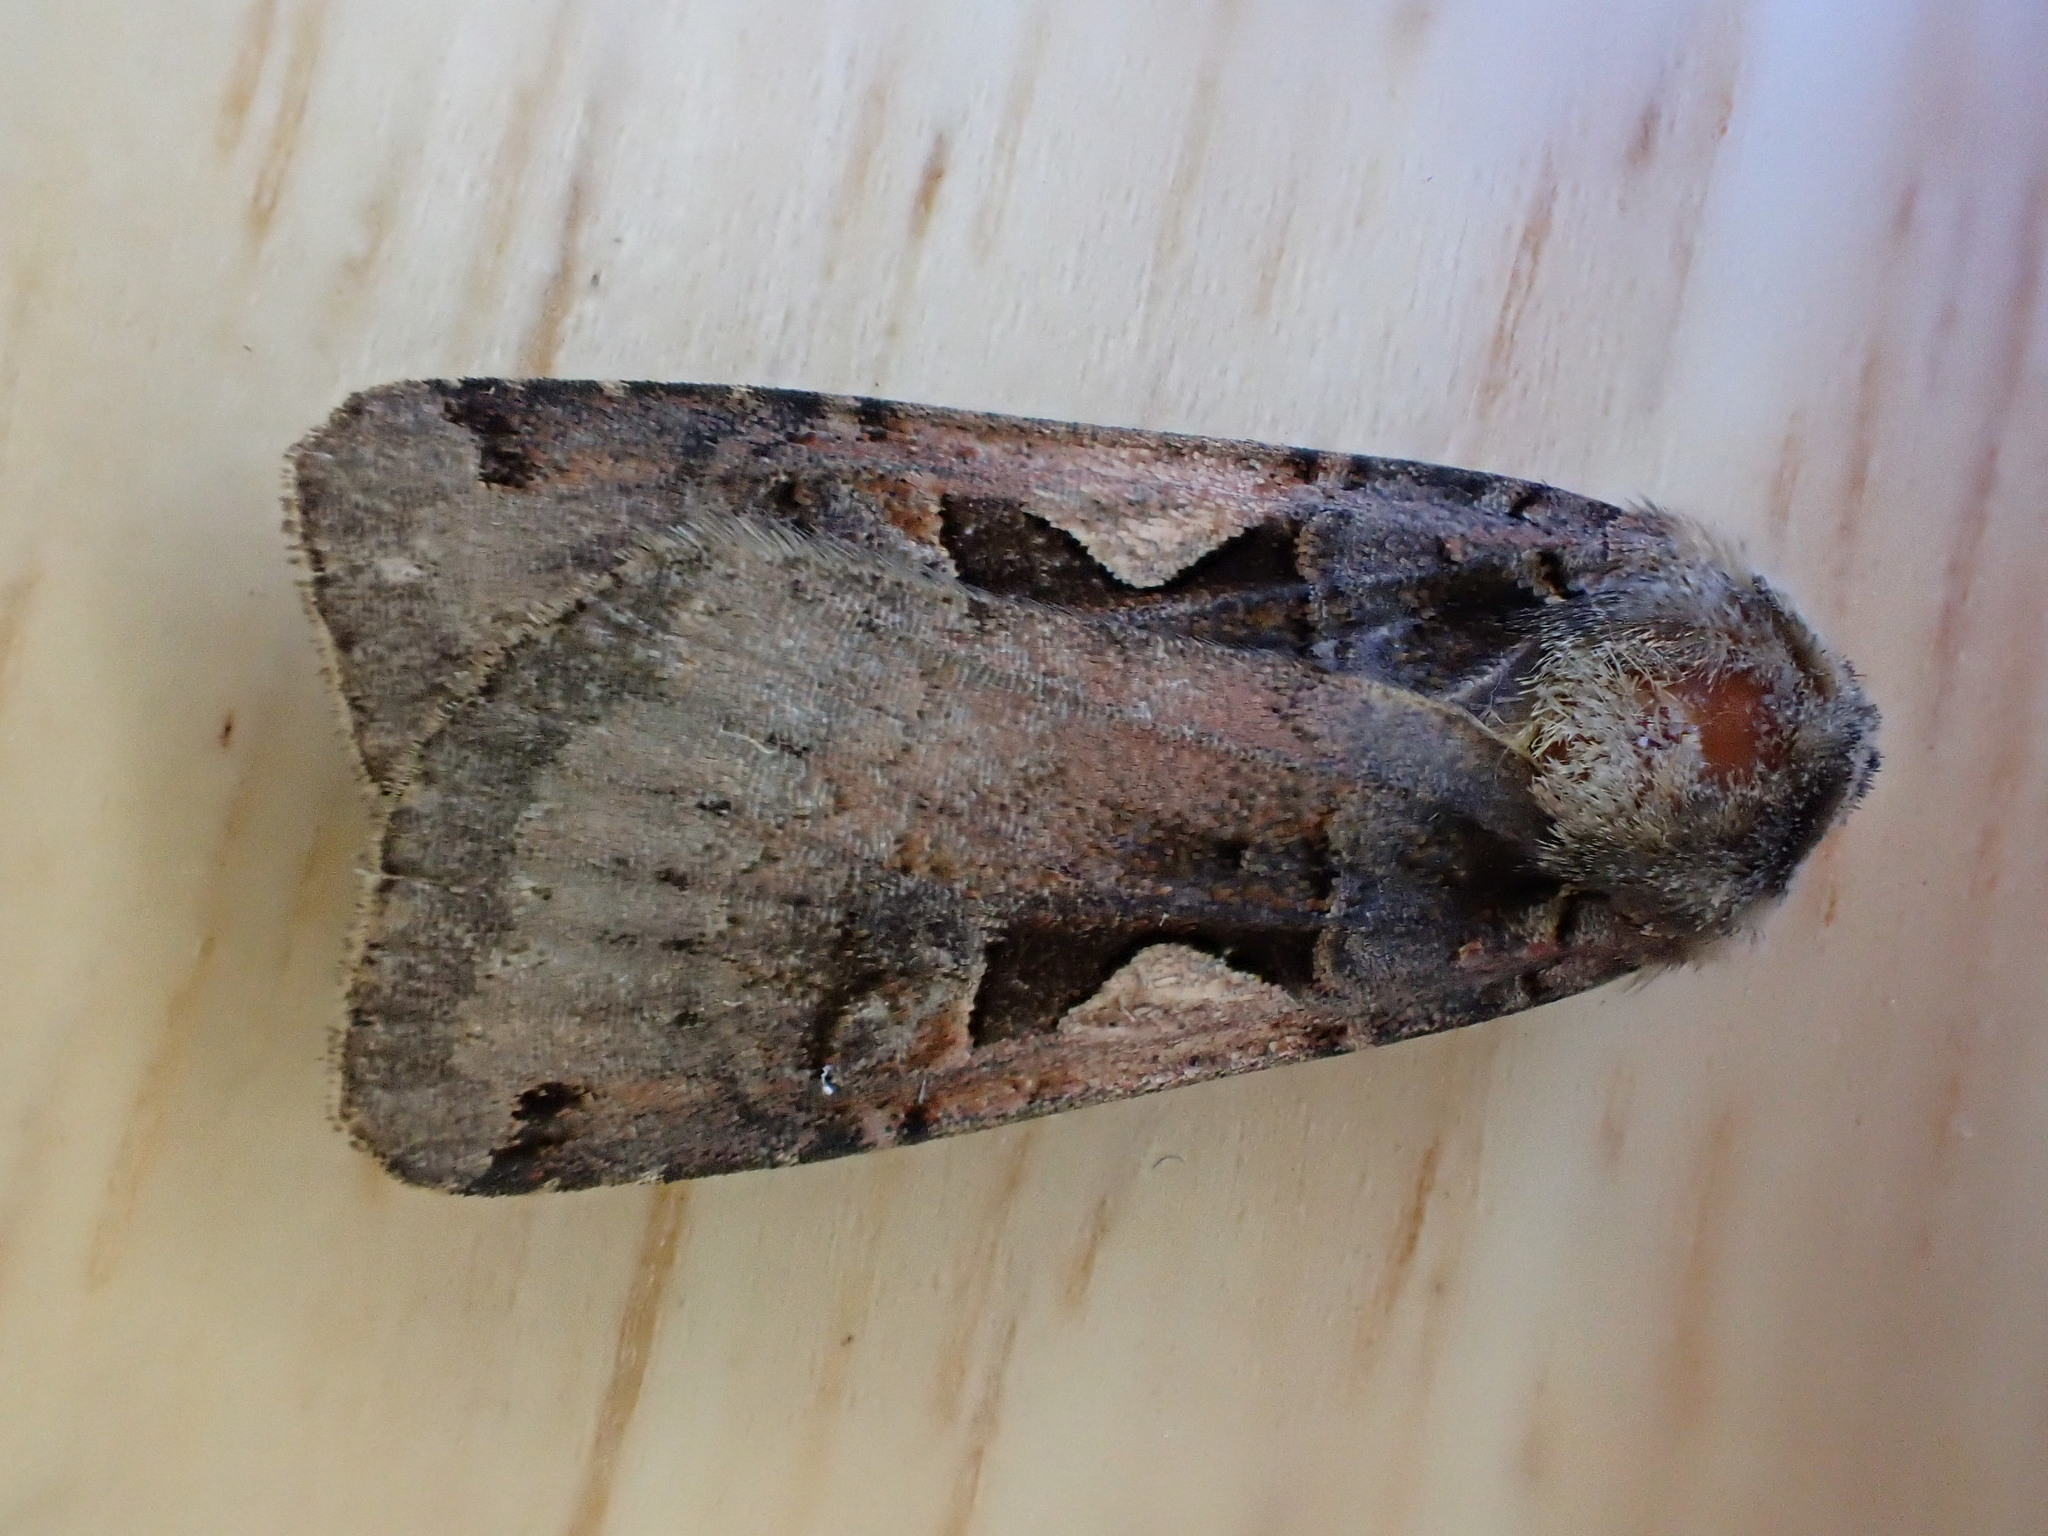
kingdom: Animalia
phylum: Arthropoda
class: Insecta
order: Lepidoptera
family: Noctuidae
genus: Xestia
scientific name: Xestia c-nigrum
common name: Setaceous hebrew character
